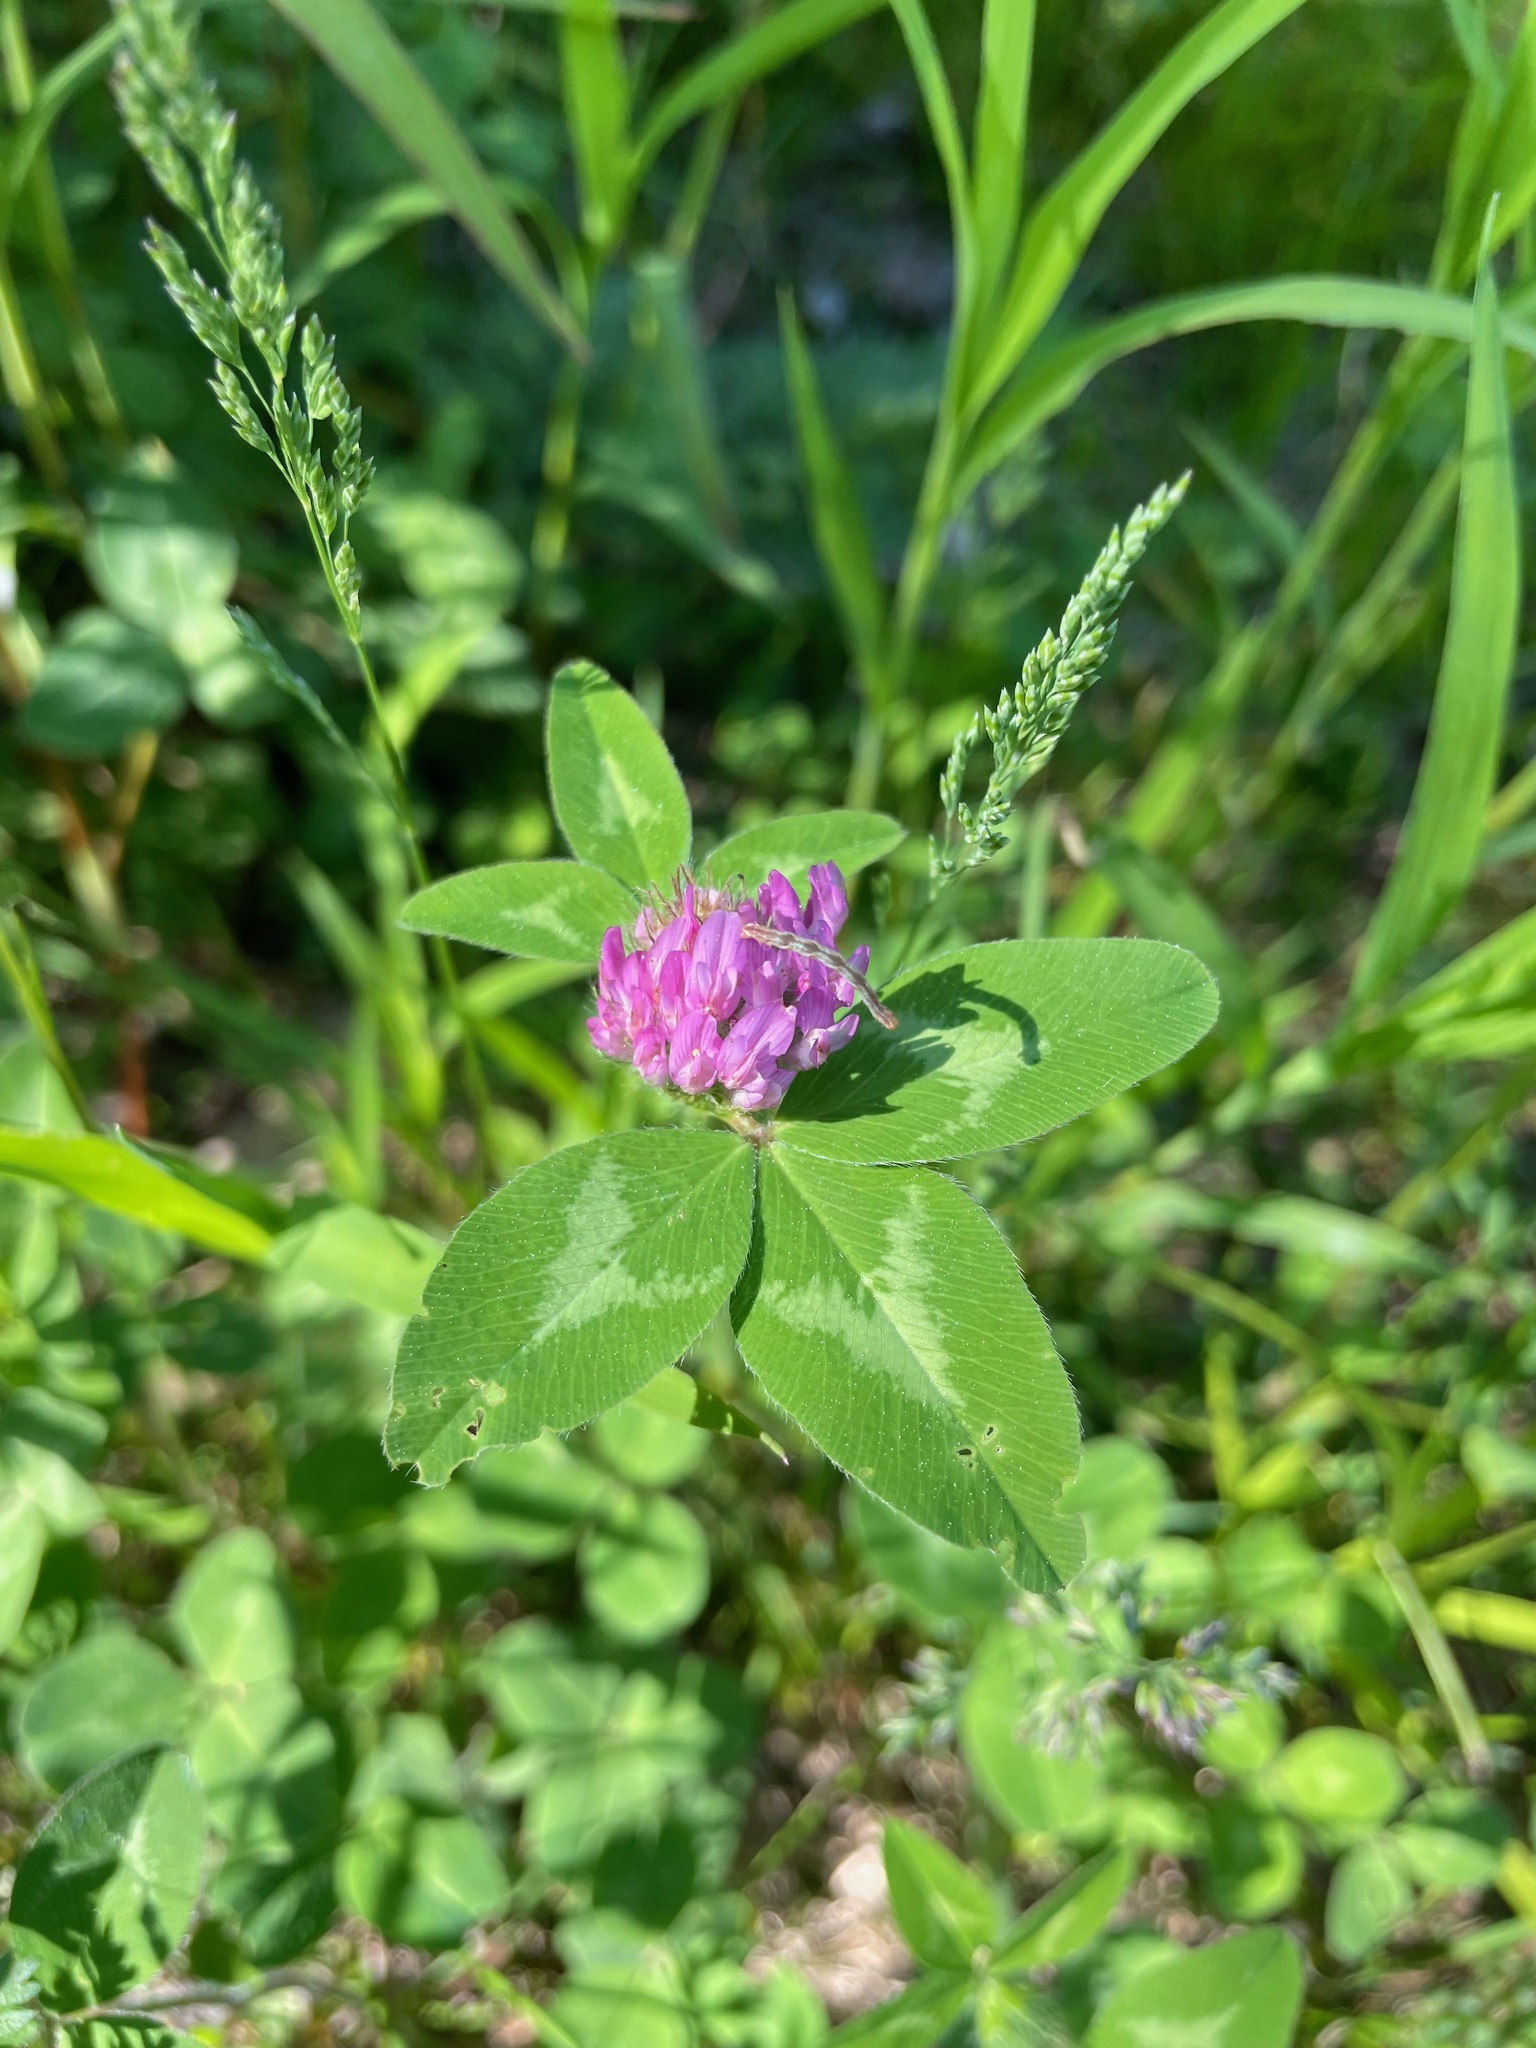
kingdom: Plantae
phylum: Tracheophyta
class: Magnoliopsida
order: Fabales
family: Fabaceae
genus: Trifolium
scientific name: Trifolium pratense
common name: Red clover
